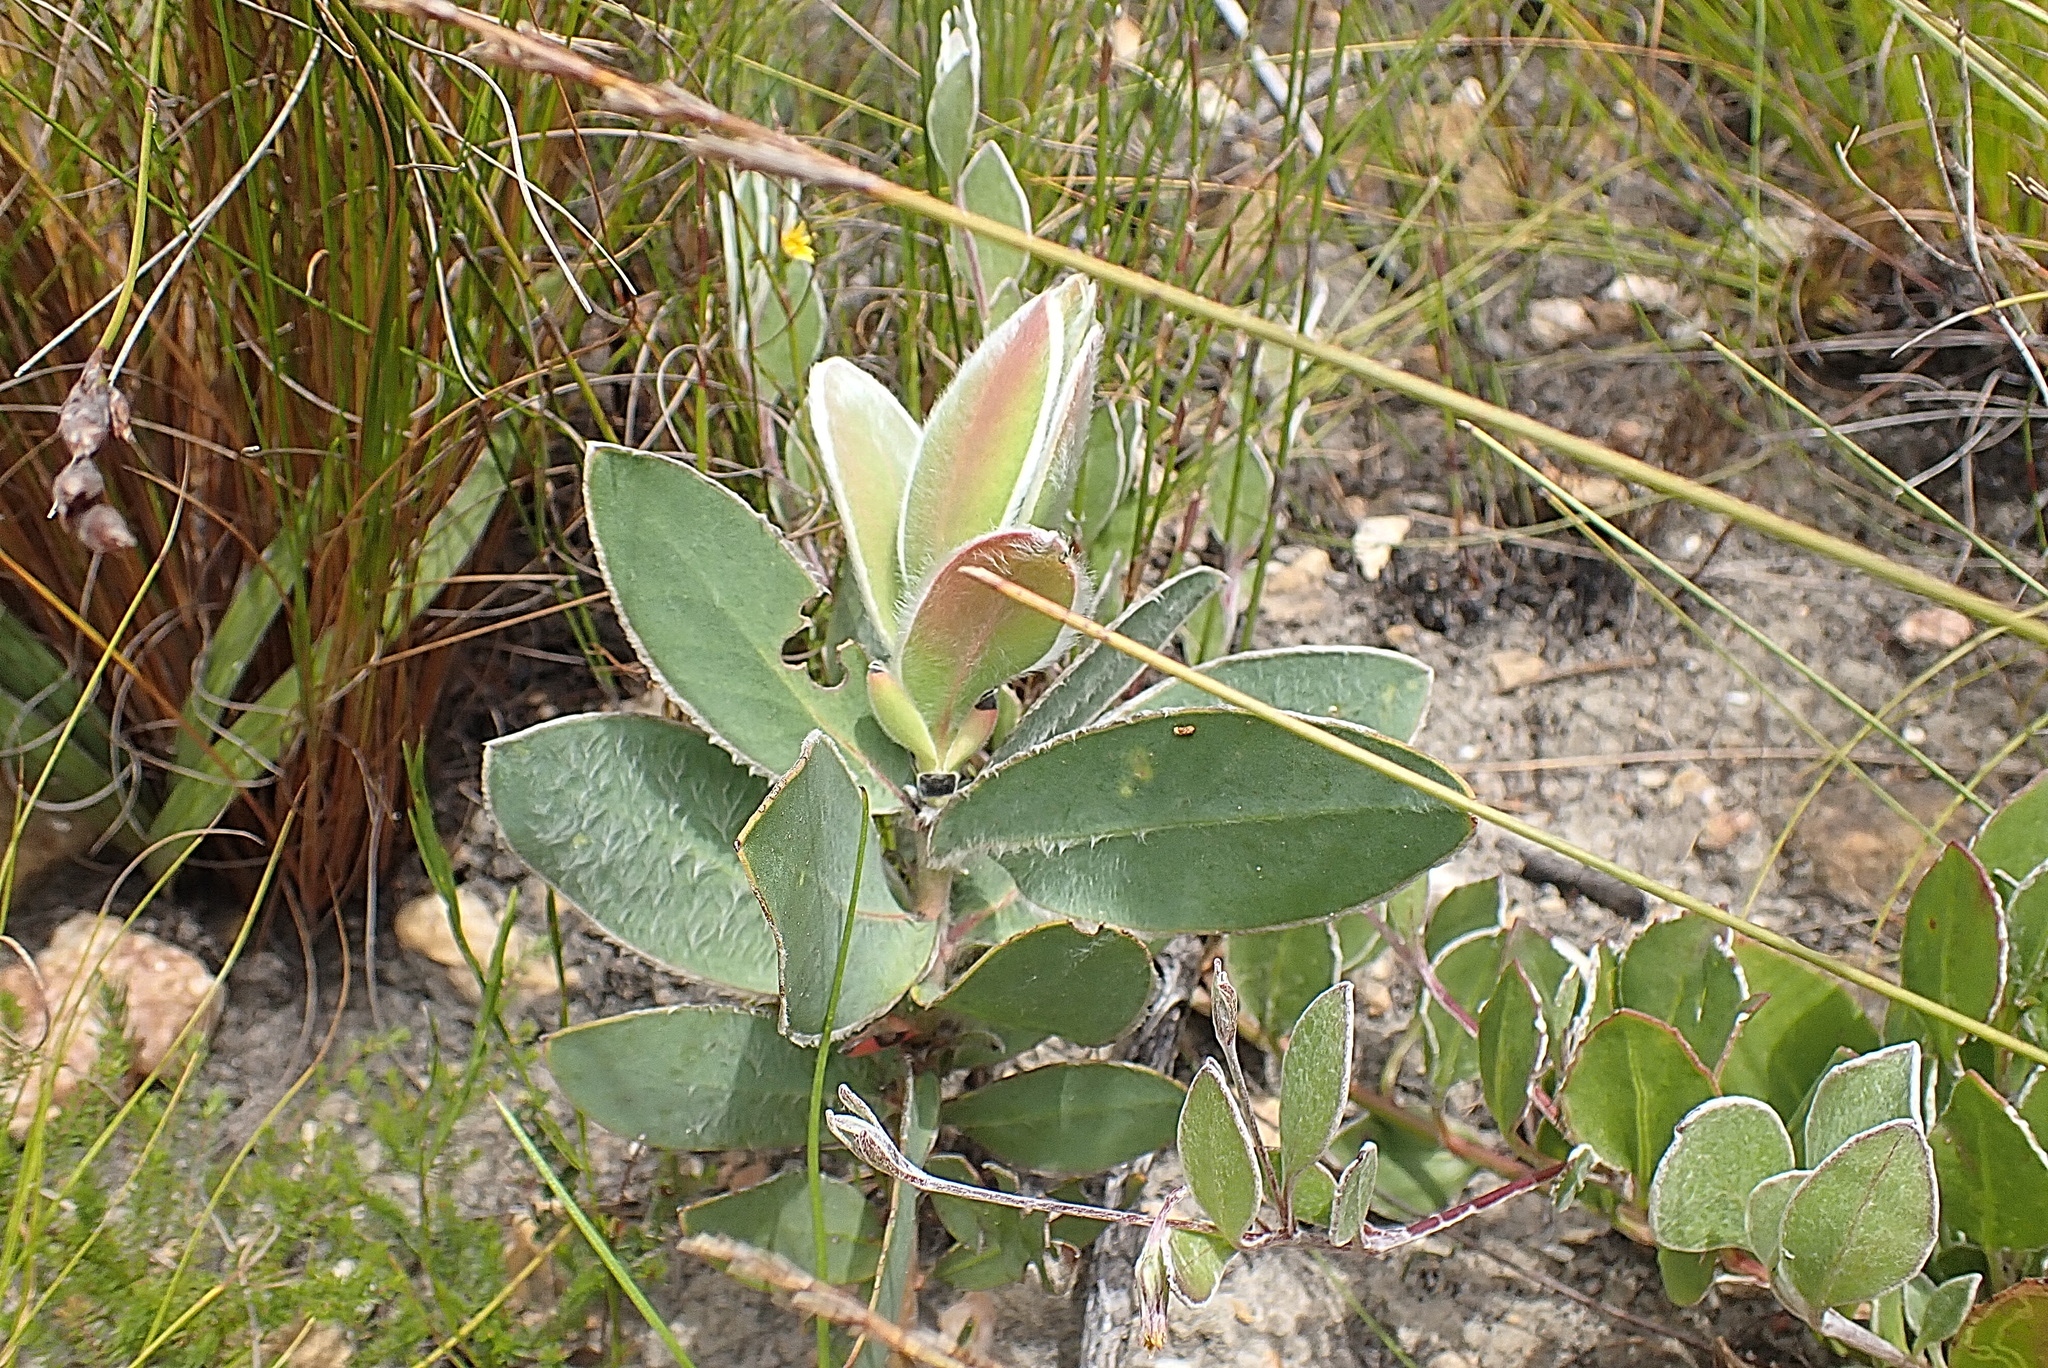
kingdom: Plantae
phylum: Tracheophyta
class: Magnoliopsida
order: Proteales
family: Proteaceae
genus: Protea
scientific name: Protea aurea
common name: Shuttlecock sugarbush
